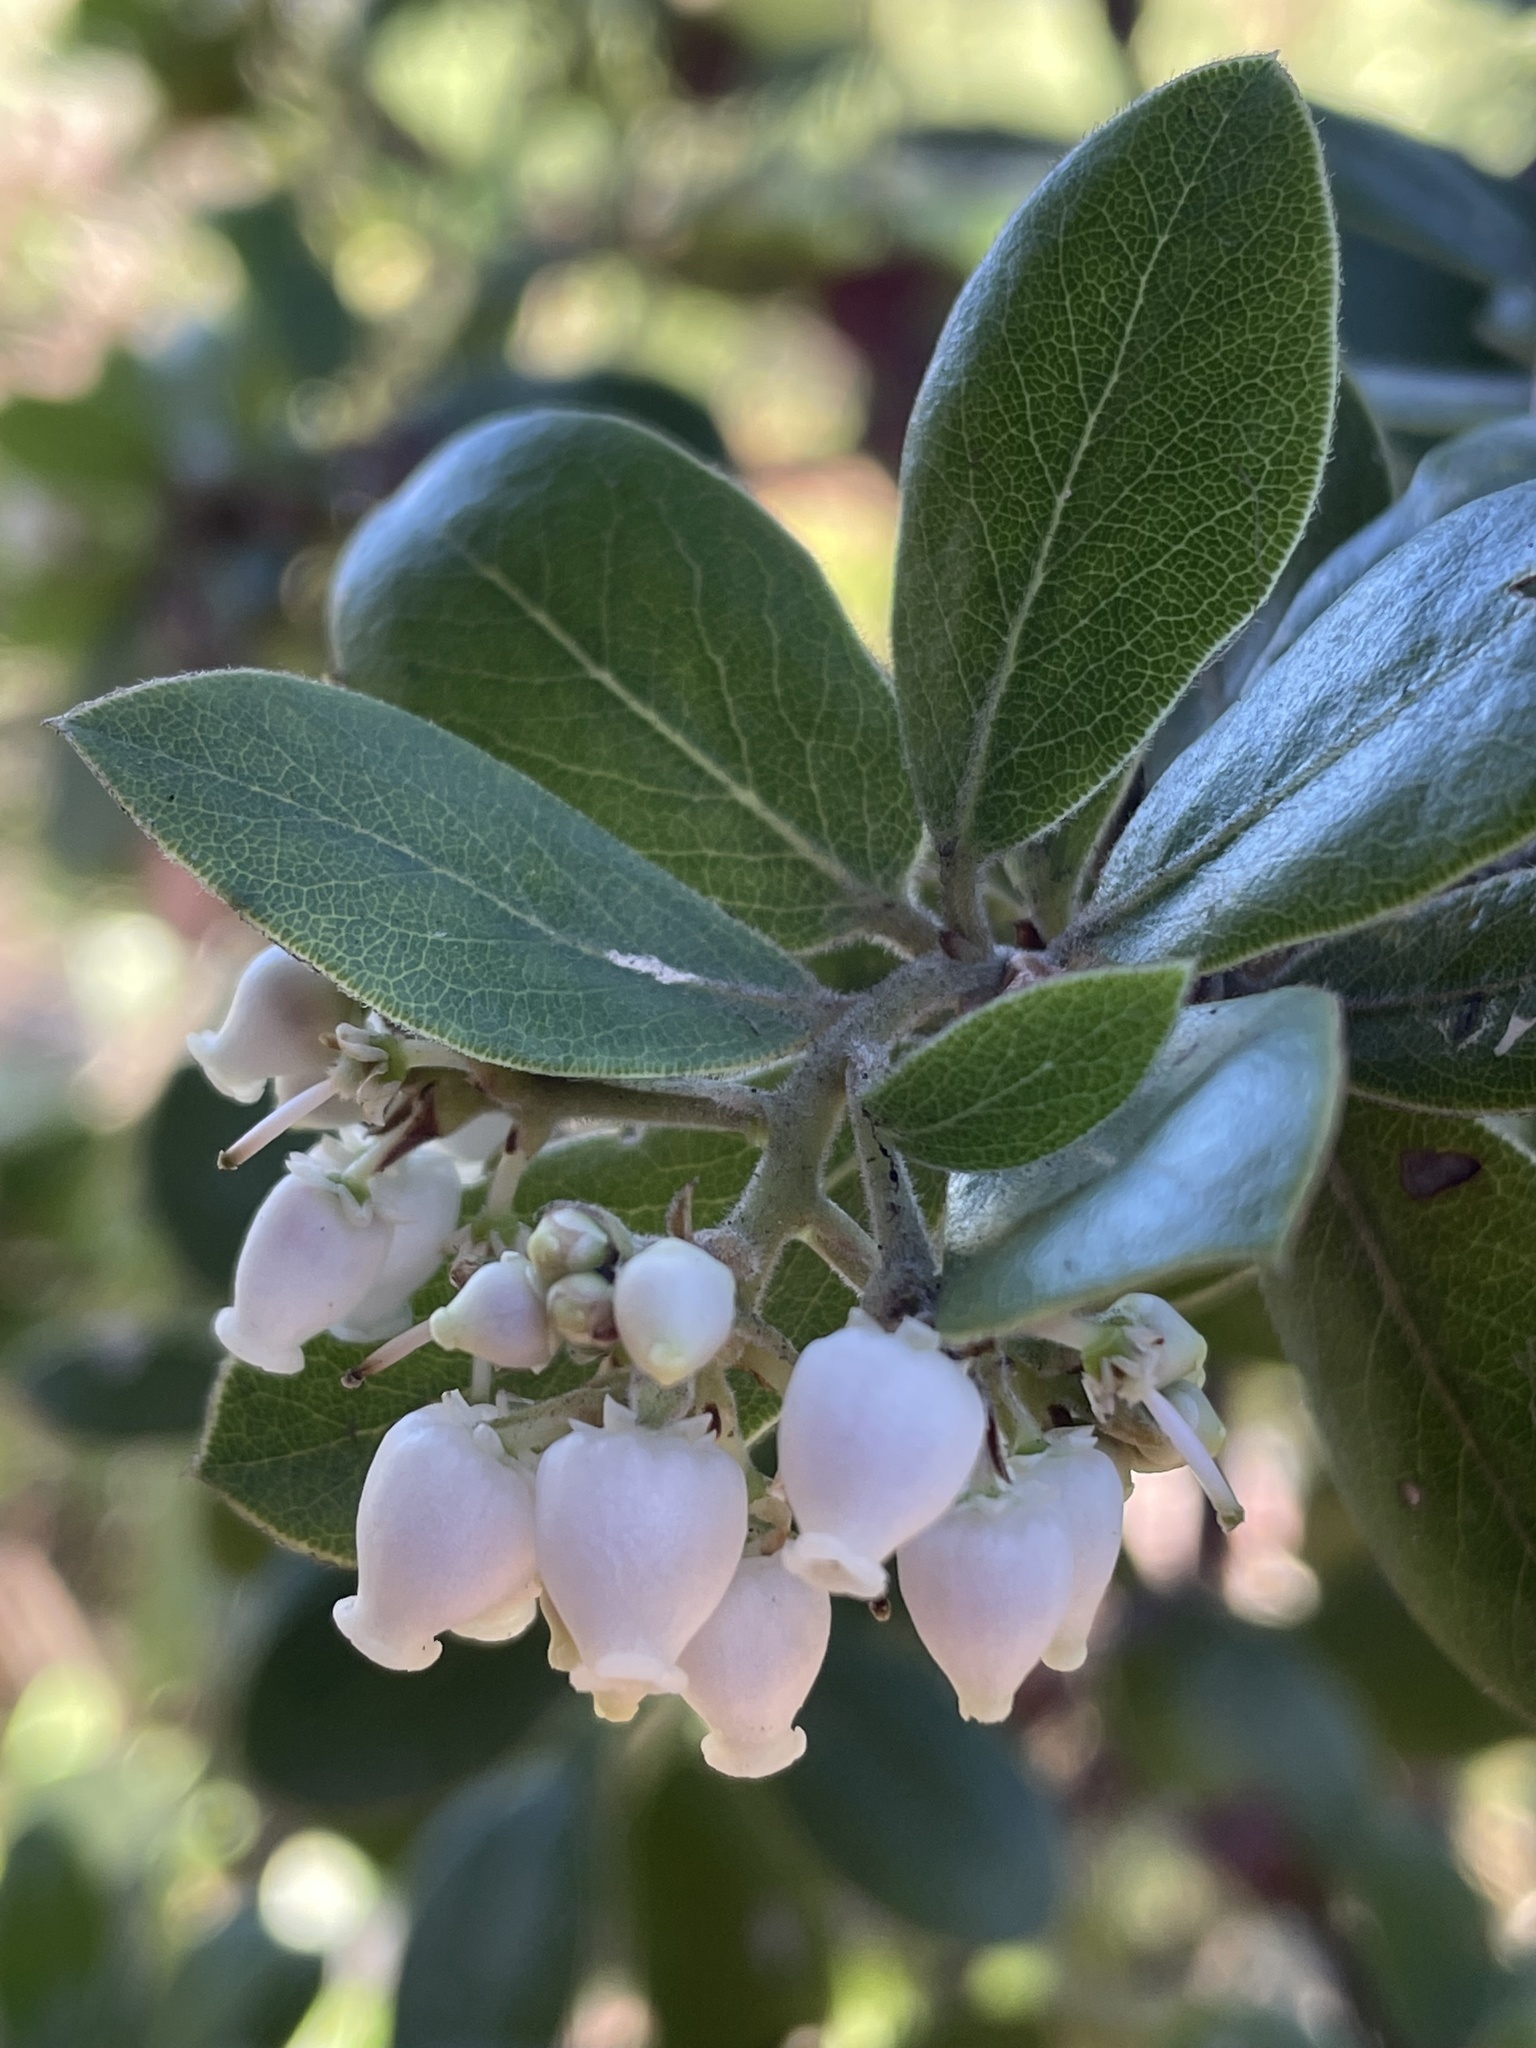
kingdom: Plantae
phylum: Tracheophyta
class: Magnoliopsida
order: Ericales
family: Ericaceae
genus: Arctostaphylos
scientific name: Arctostaphylos tomentosa
